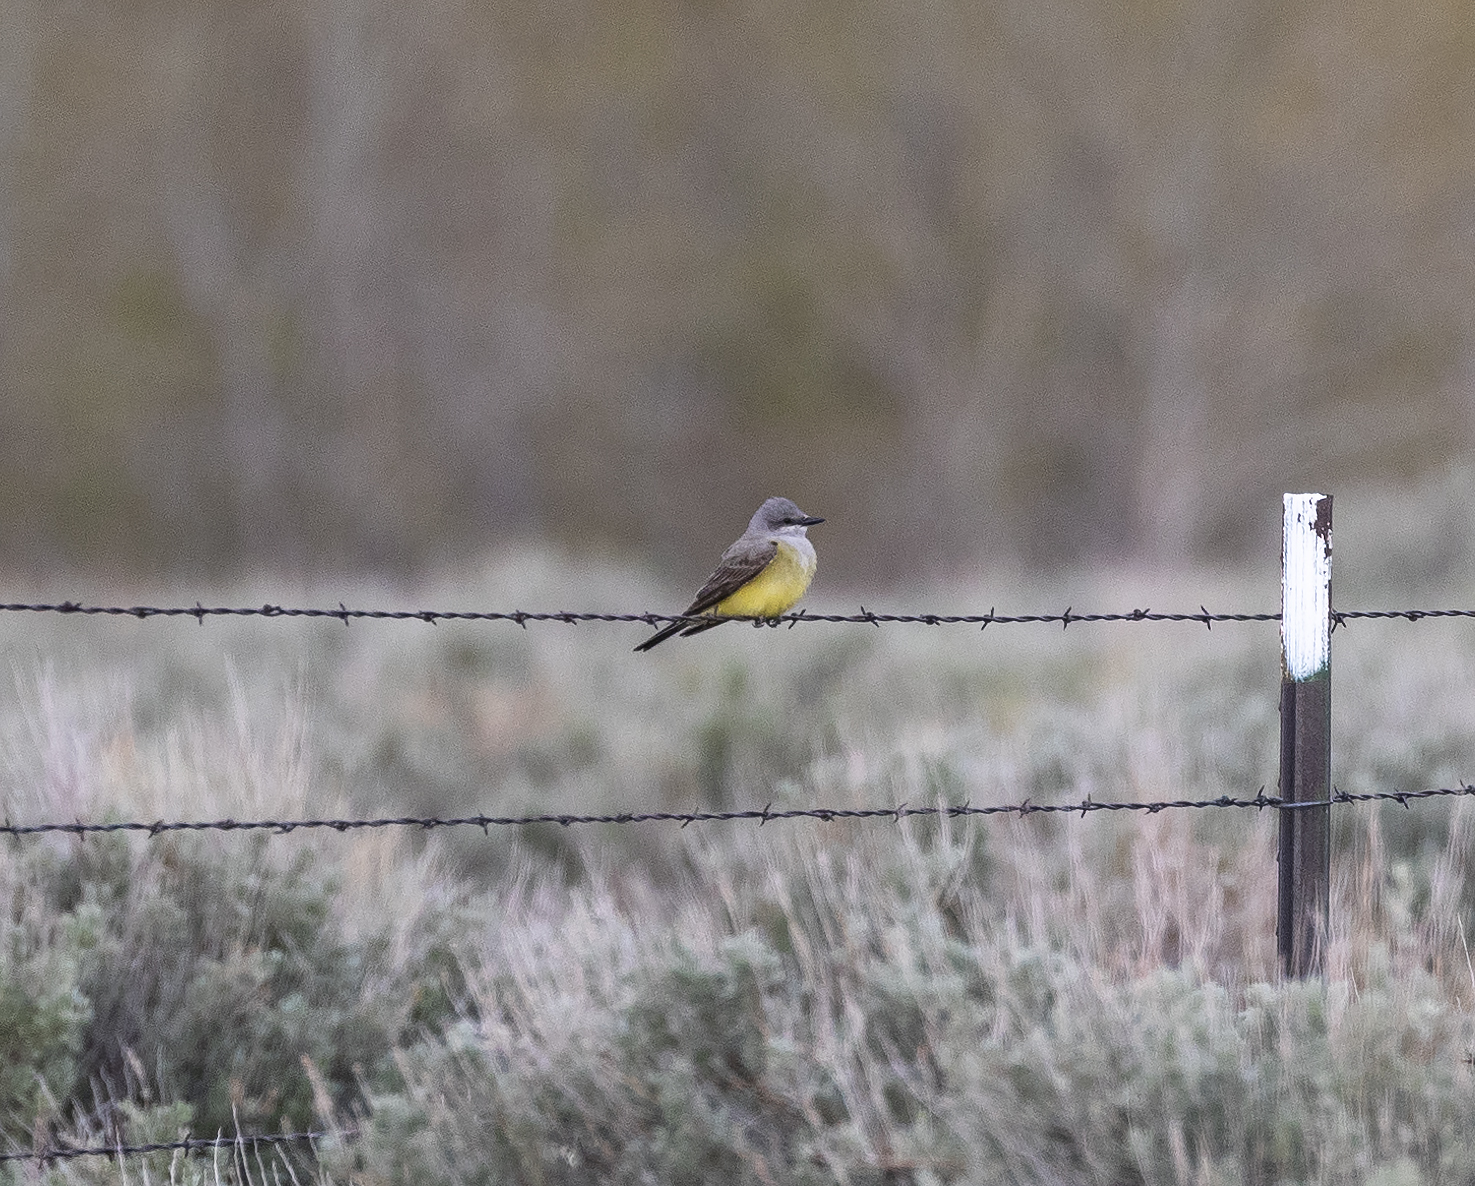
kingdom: Animalia
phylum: Chordata
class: Aves
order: Passeriformes
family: Tyrannidae
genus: Tyrannus
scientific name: Tyrannus verticalis
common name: Western kingbird
